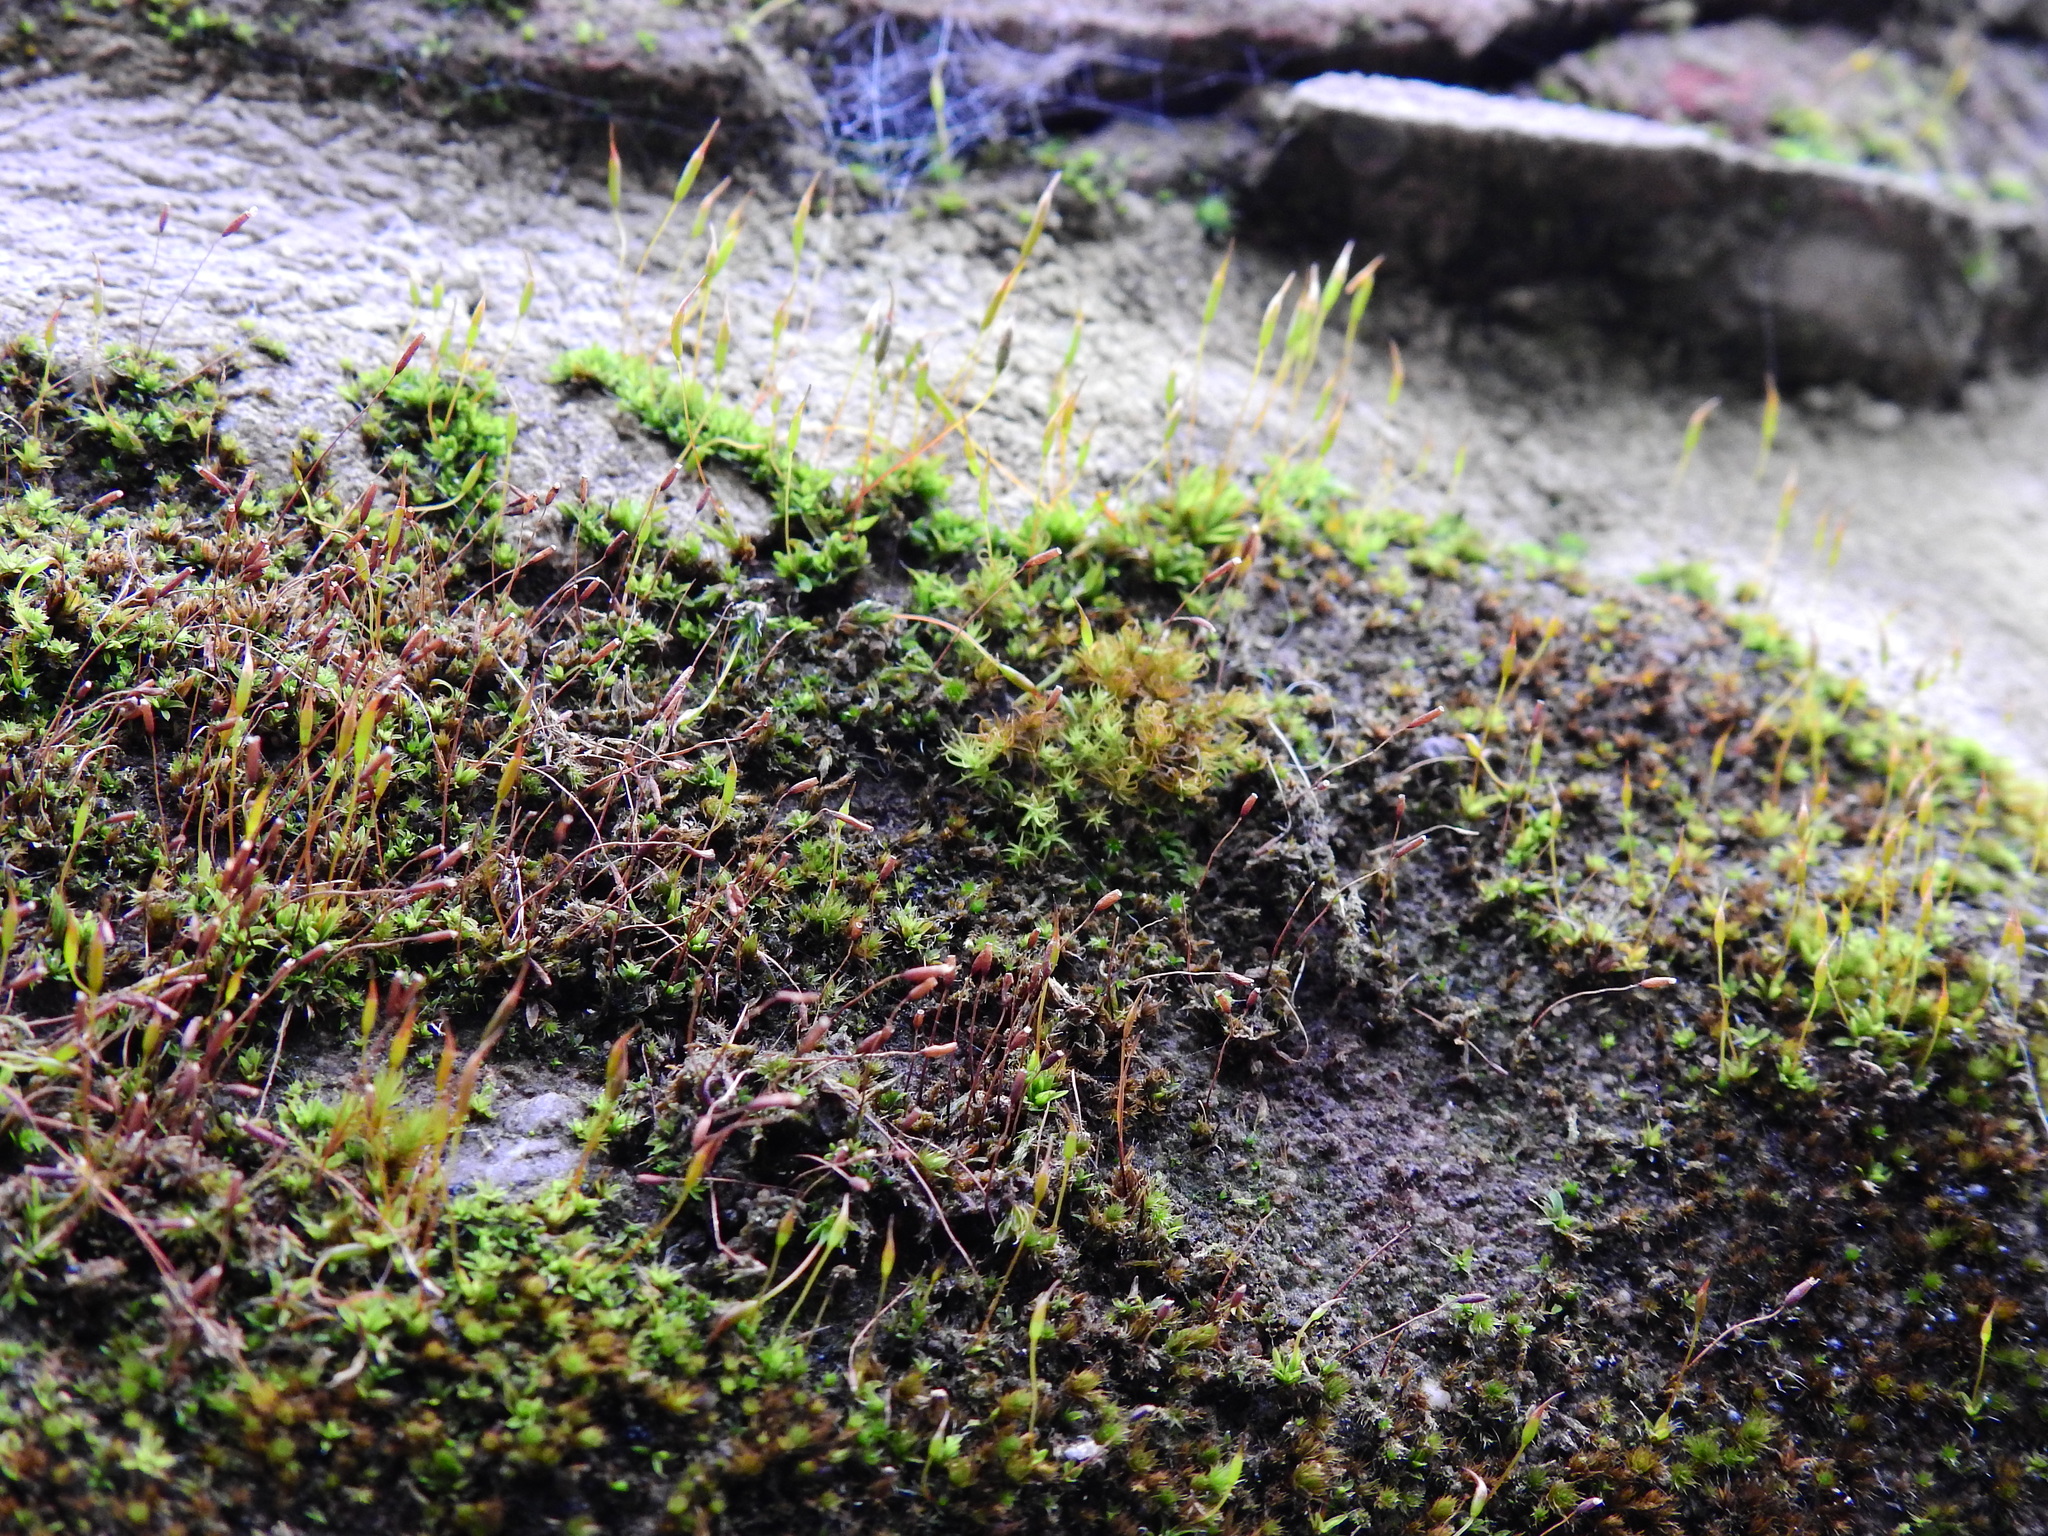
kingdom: Plantae
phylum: Bryophyta
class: Bryopsida
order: Pottiales
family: Pottiaceae
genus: Tortula
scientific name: Tortula muralis
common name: Wall screw-moss
